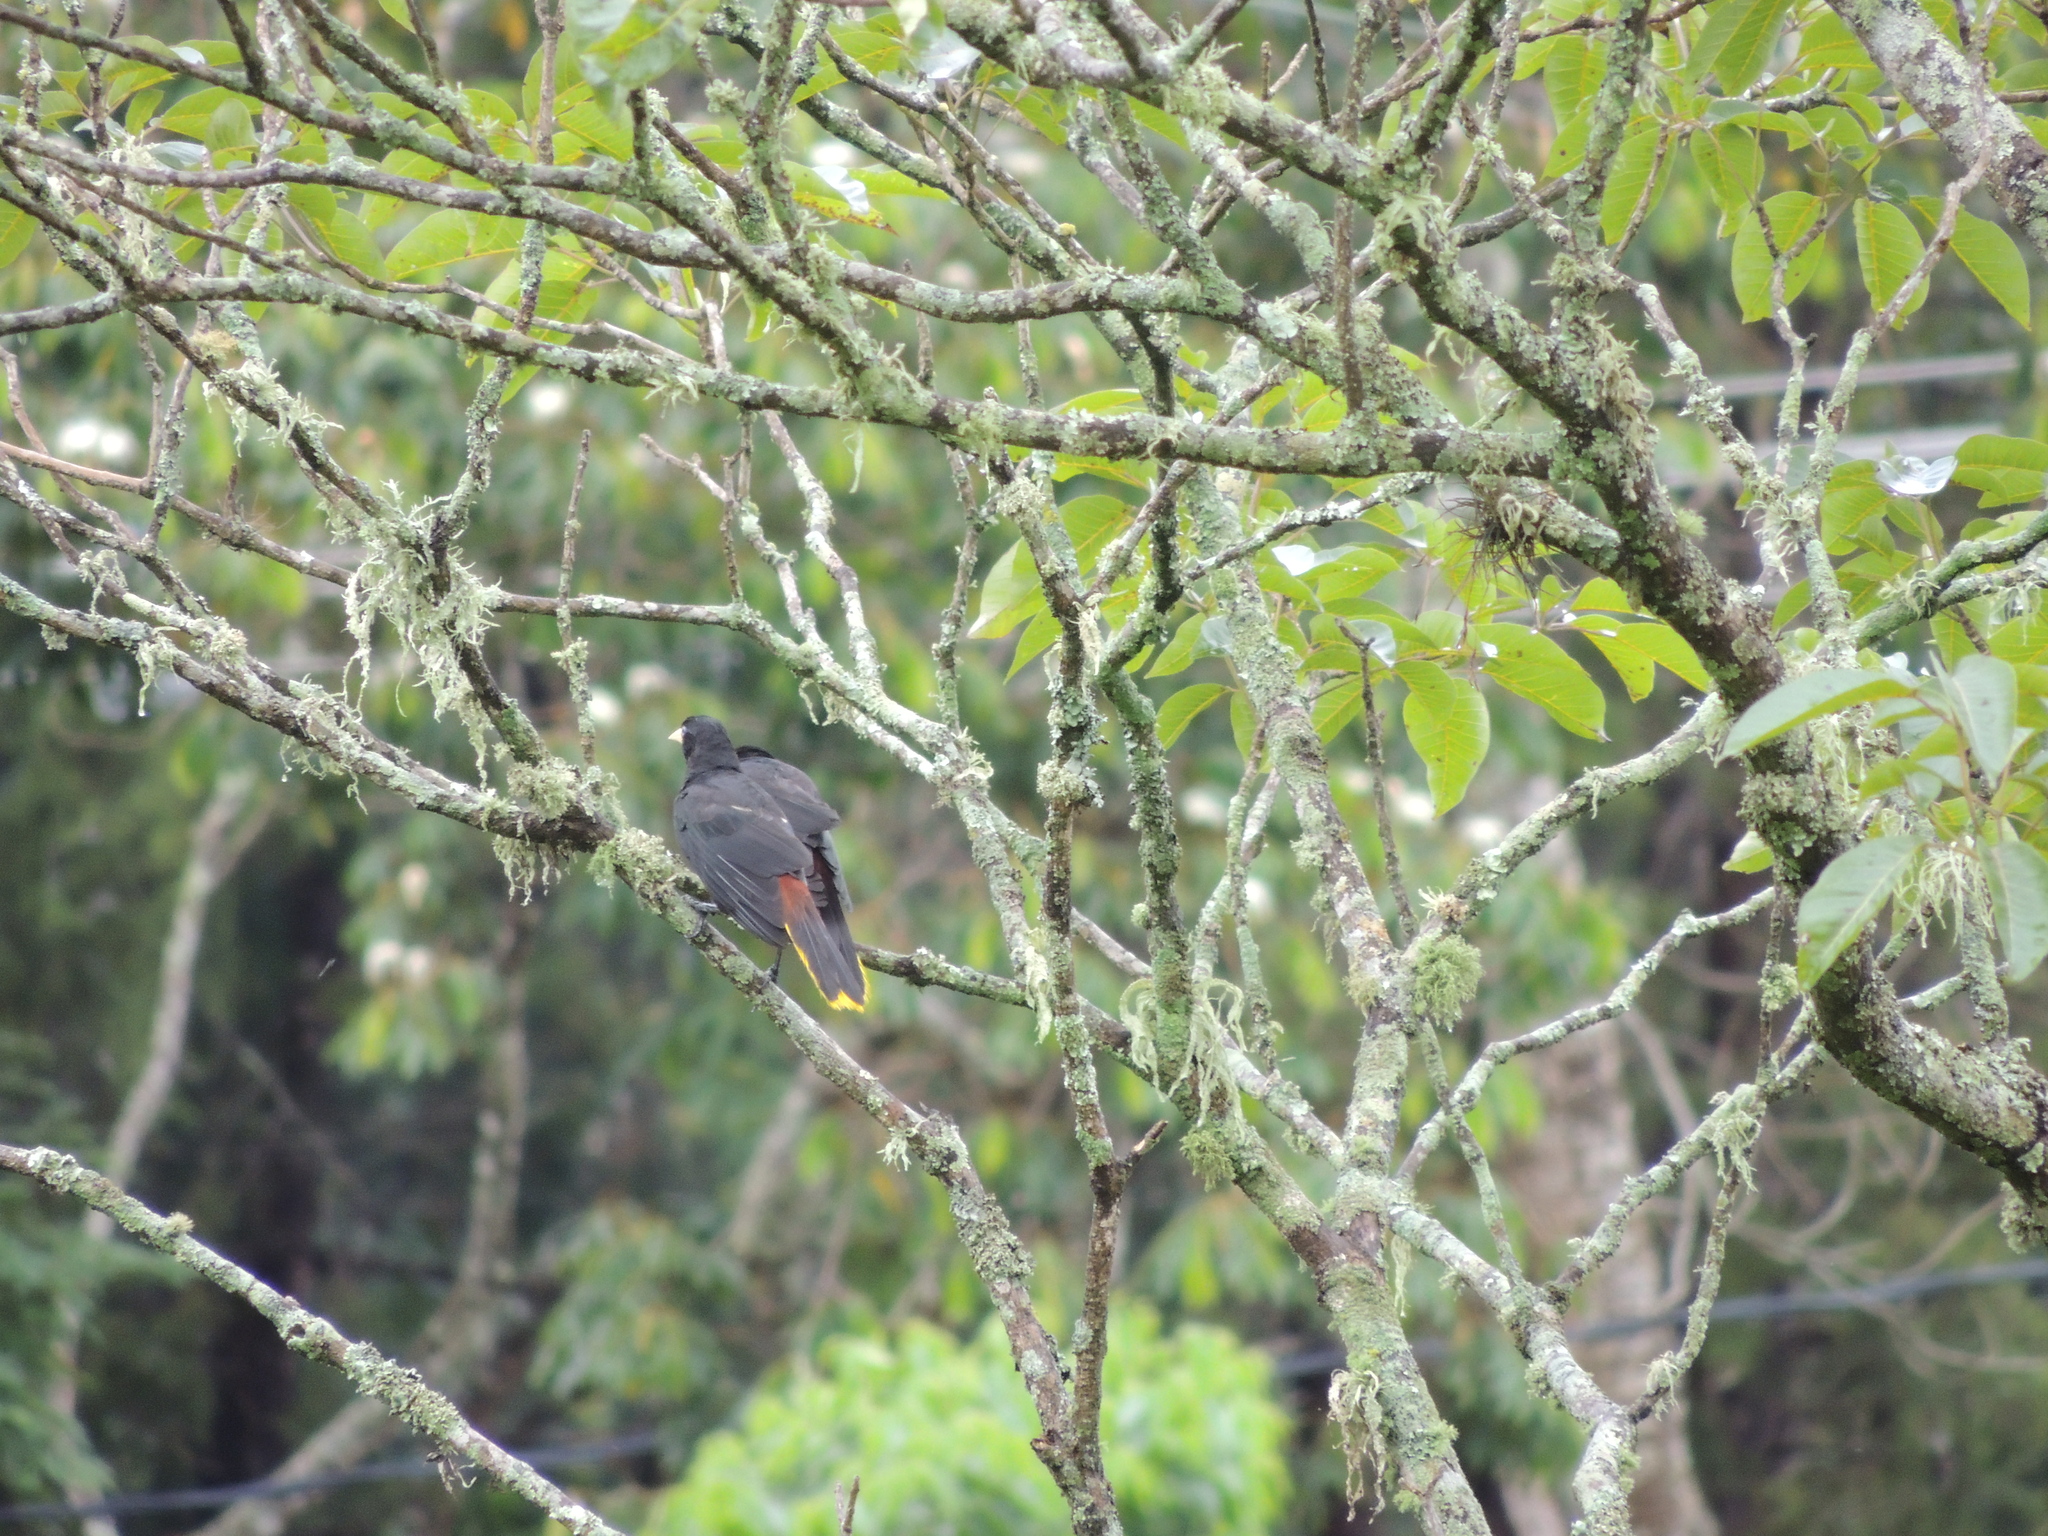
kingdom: Animalia
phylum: Chordata
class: Aves
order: Passeriformes
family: Icteridae
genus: Psarocolius
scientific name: Psarocolius decumanus
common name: Crested oropendola
